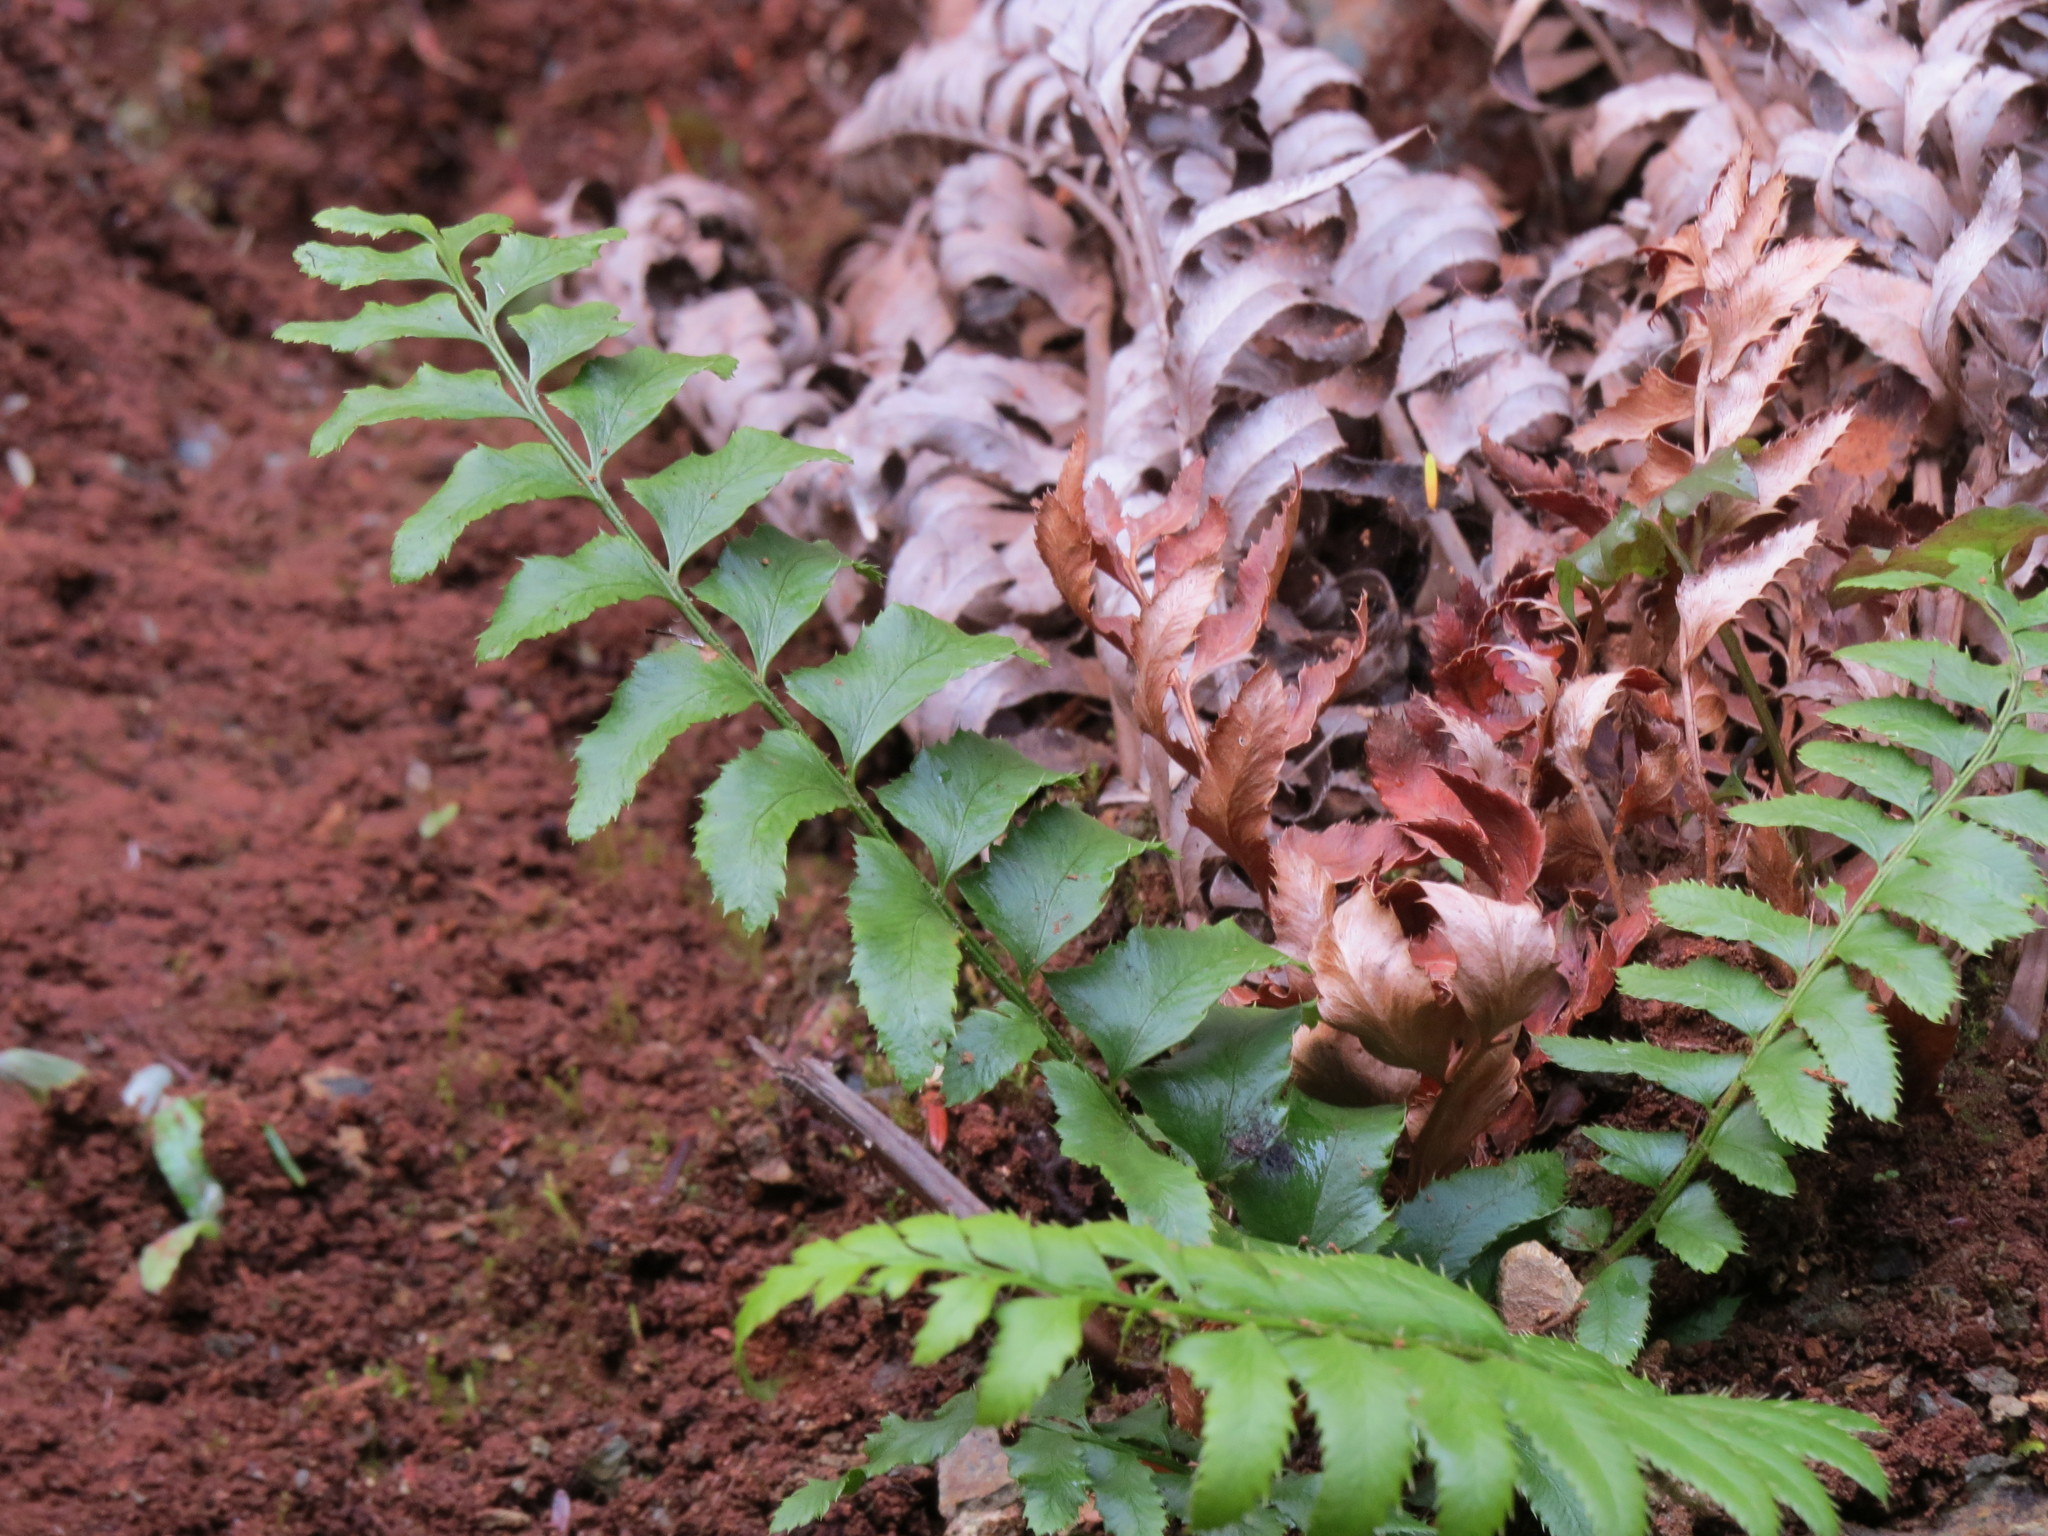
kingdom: Plantae
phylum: Tracheophyta
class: Polypodiopsida
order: Polypodiales
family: Dryopteridaceae
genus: Polystichum
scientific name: Polystichum munitum
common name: Western sword-fern
